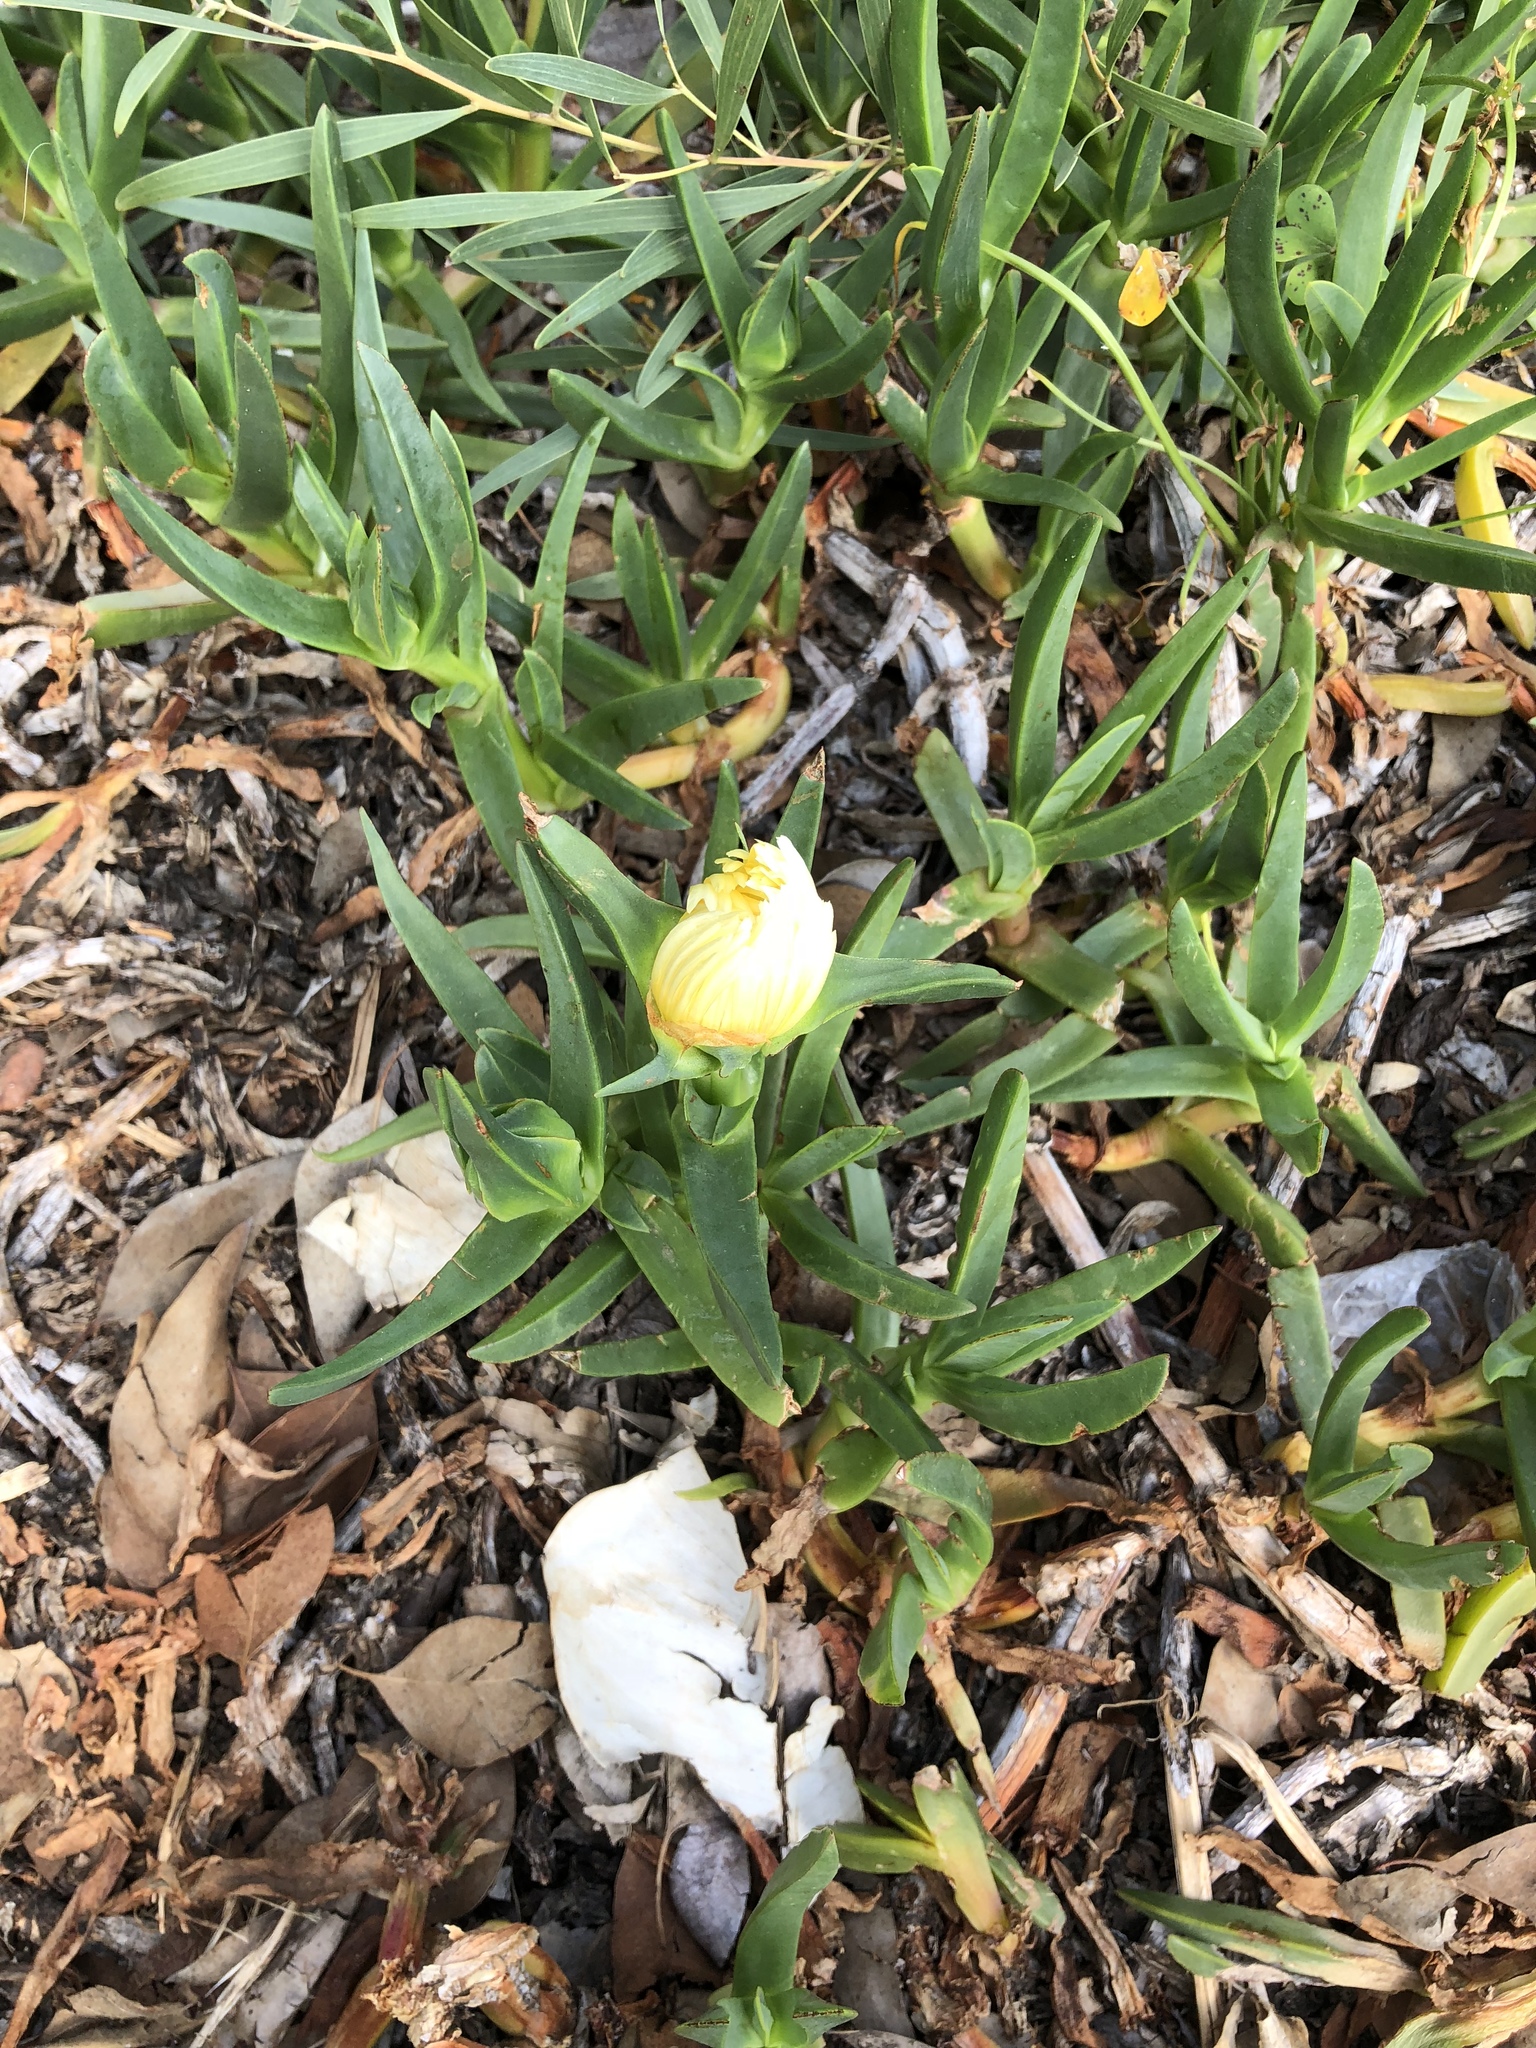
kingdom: Plantae
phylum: Tracheophyta
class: Magnoliopsida
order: Caryophyllales
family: Aizoaceae
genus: Carpobrotus
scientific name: Carpobrotus edulis
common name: Hottentot-fig
